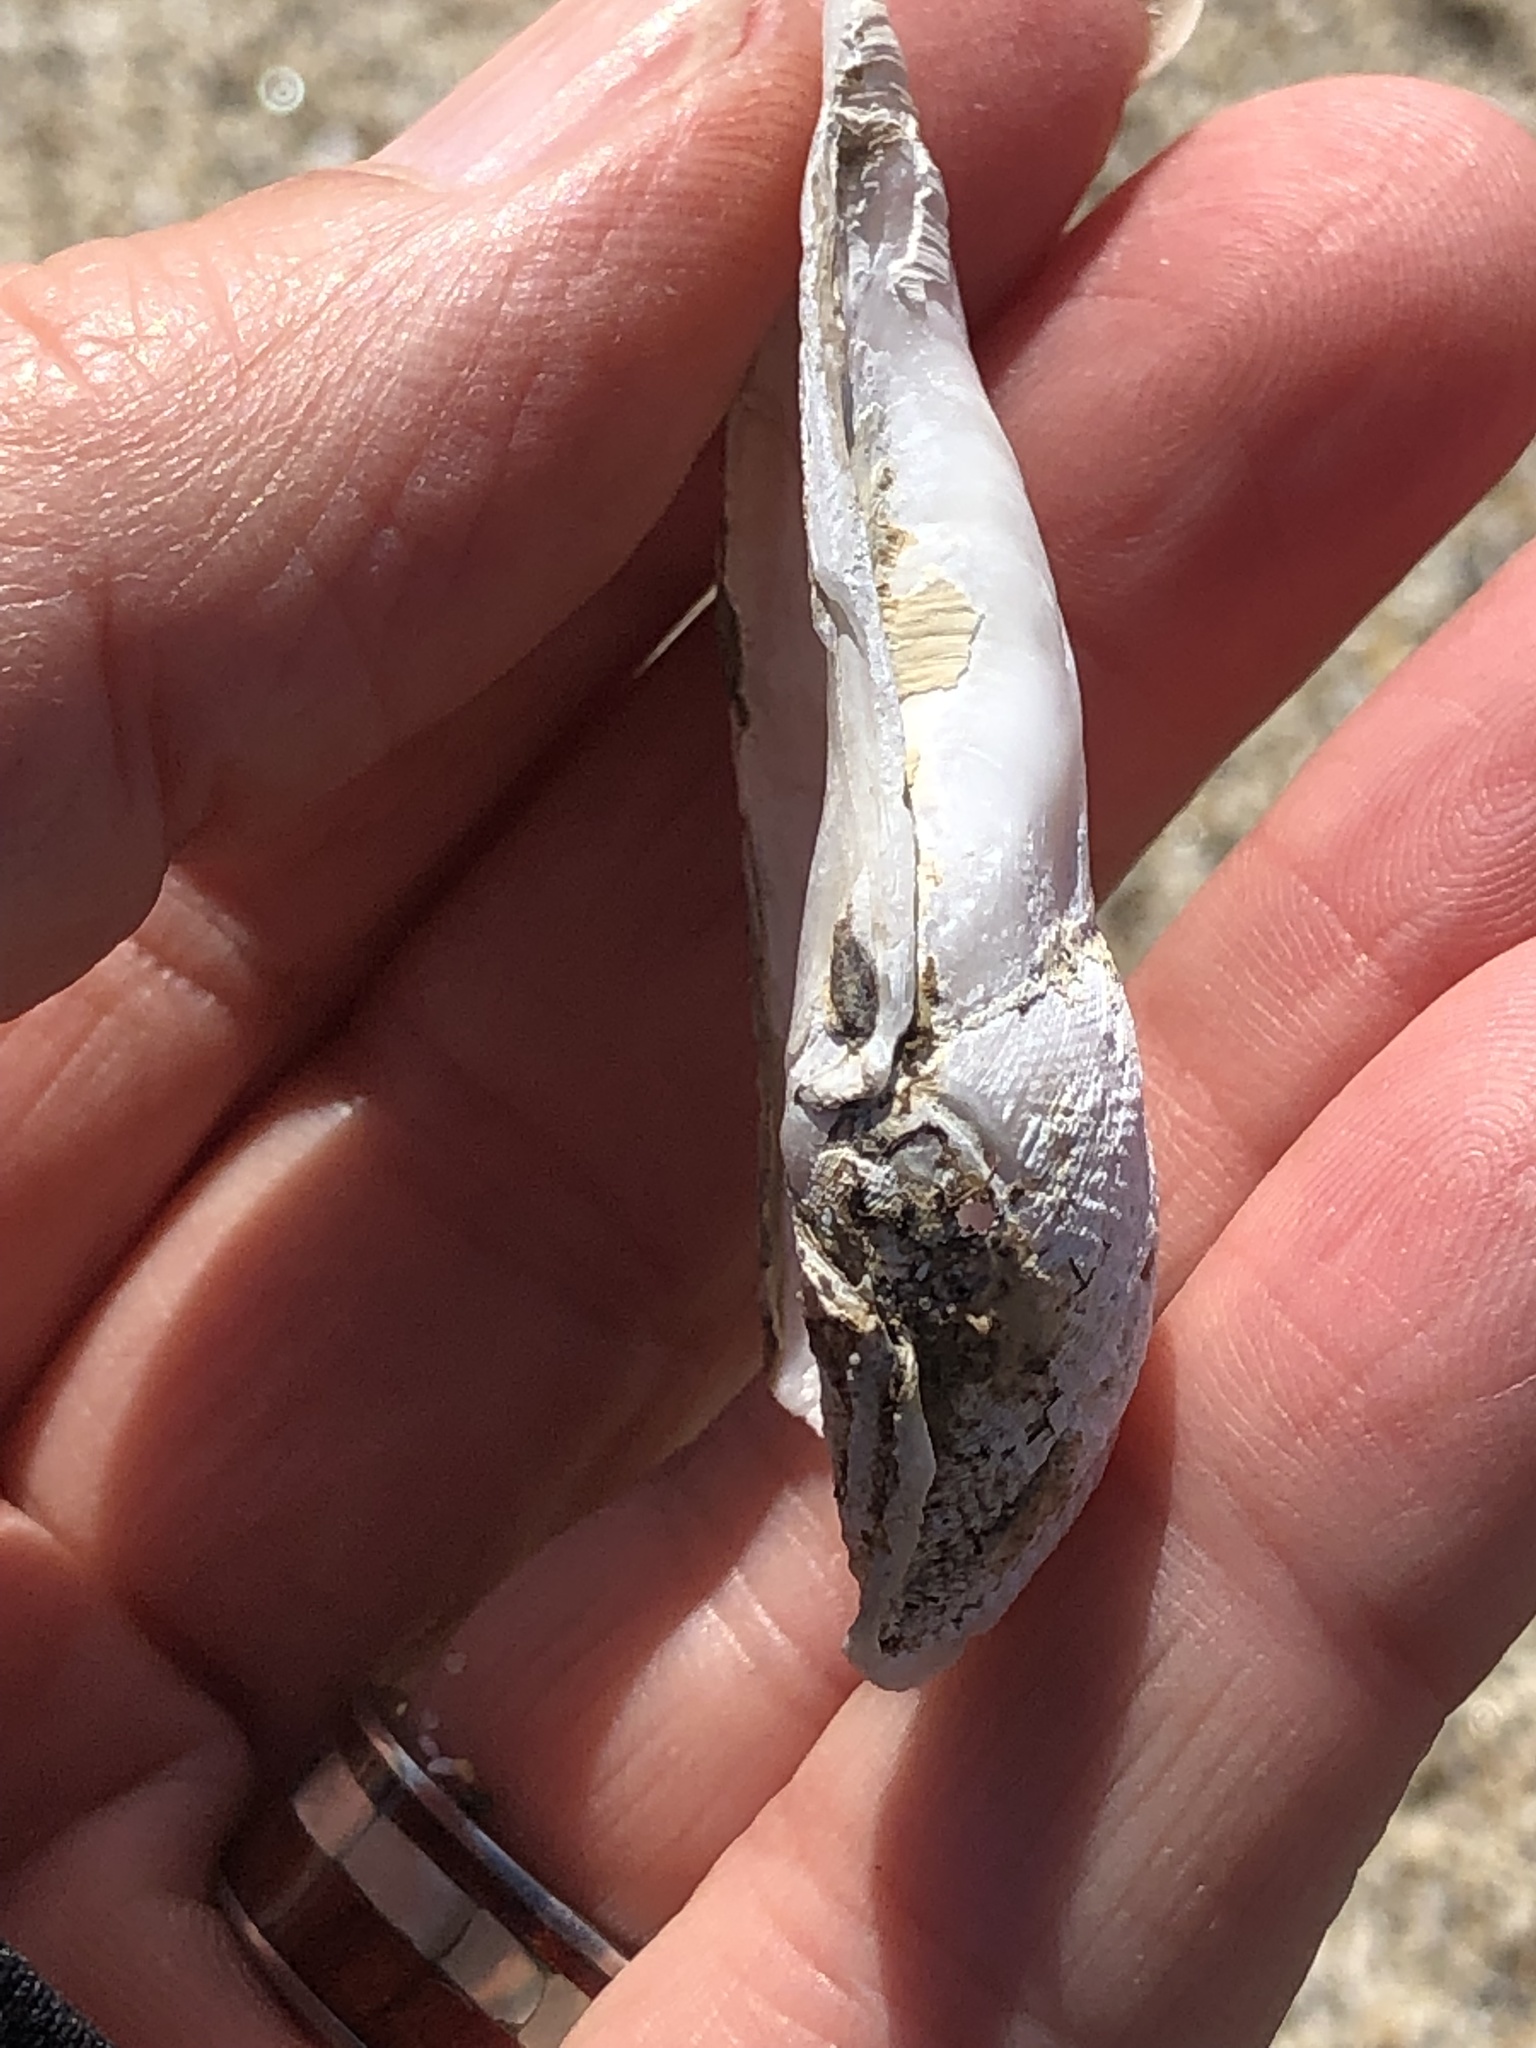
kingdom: Animalia
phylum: Mollusca
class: Bivalvia
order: Myida
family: Pholadidae
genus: Parapholas
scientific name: Parapholas californica
